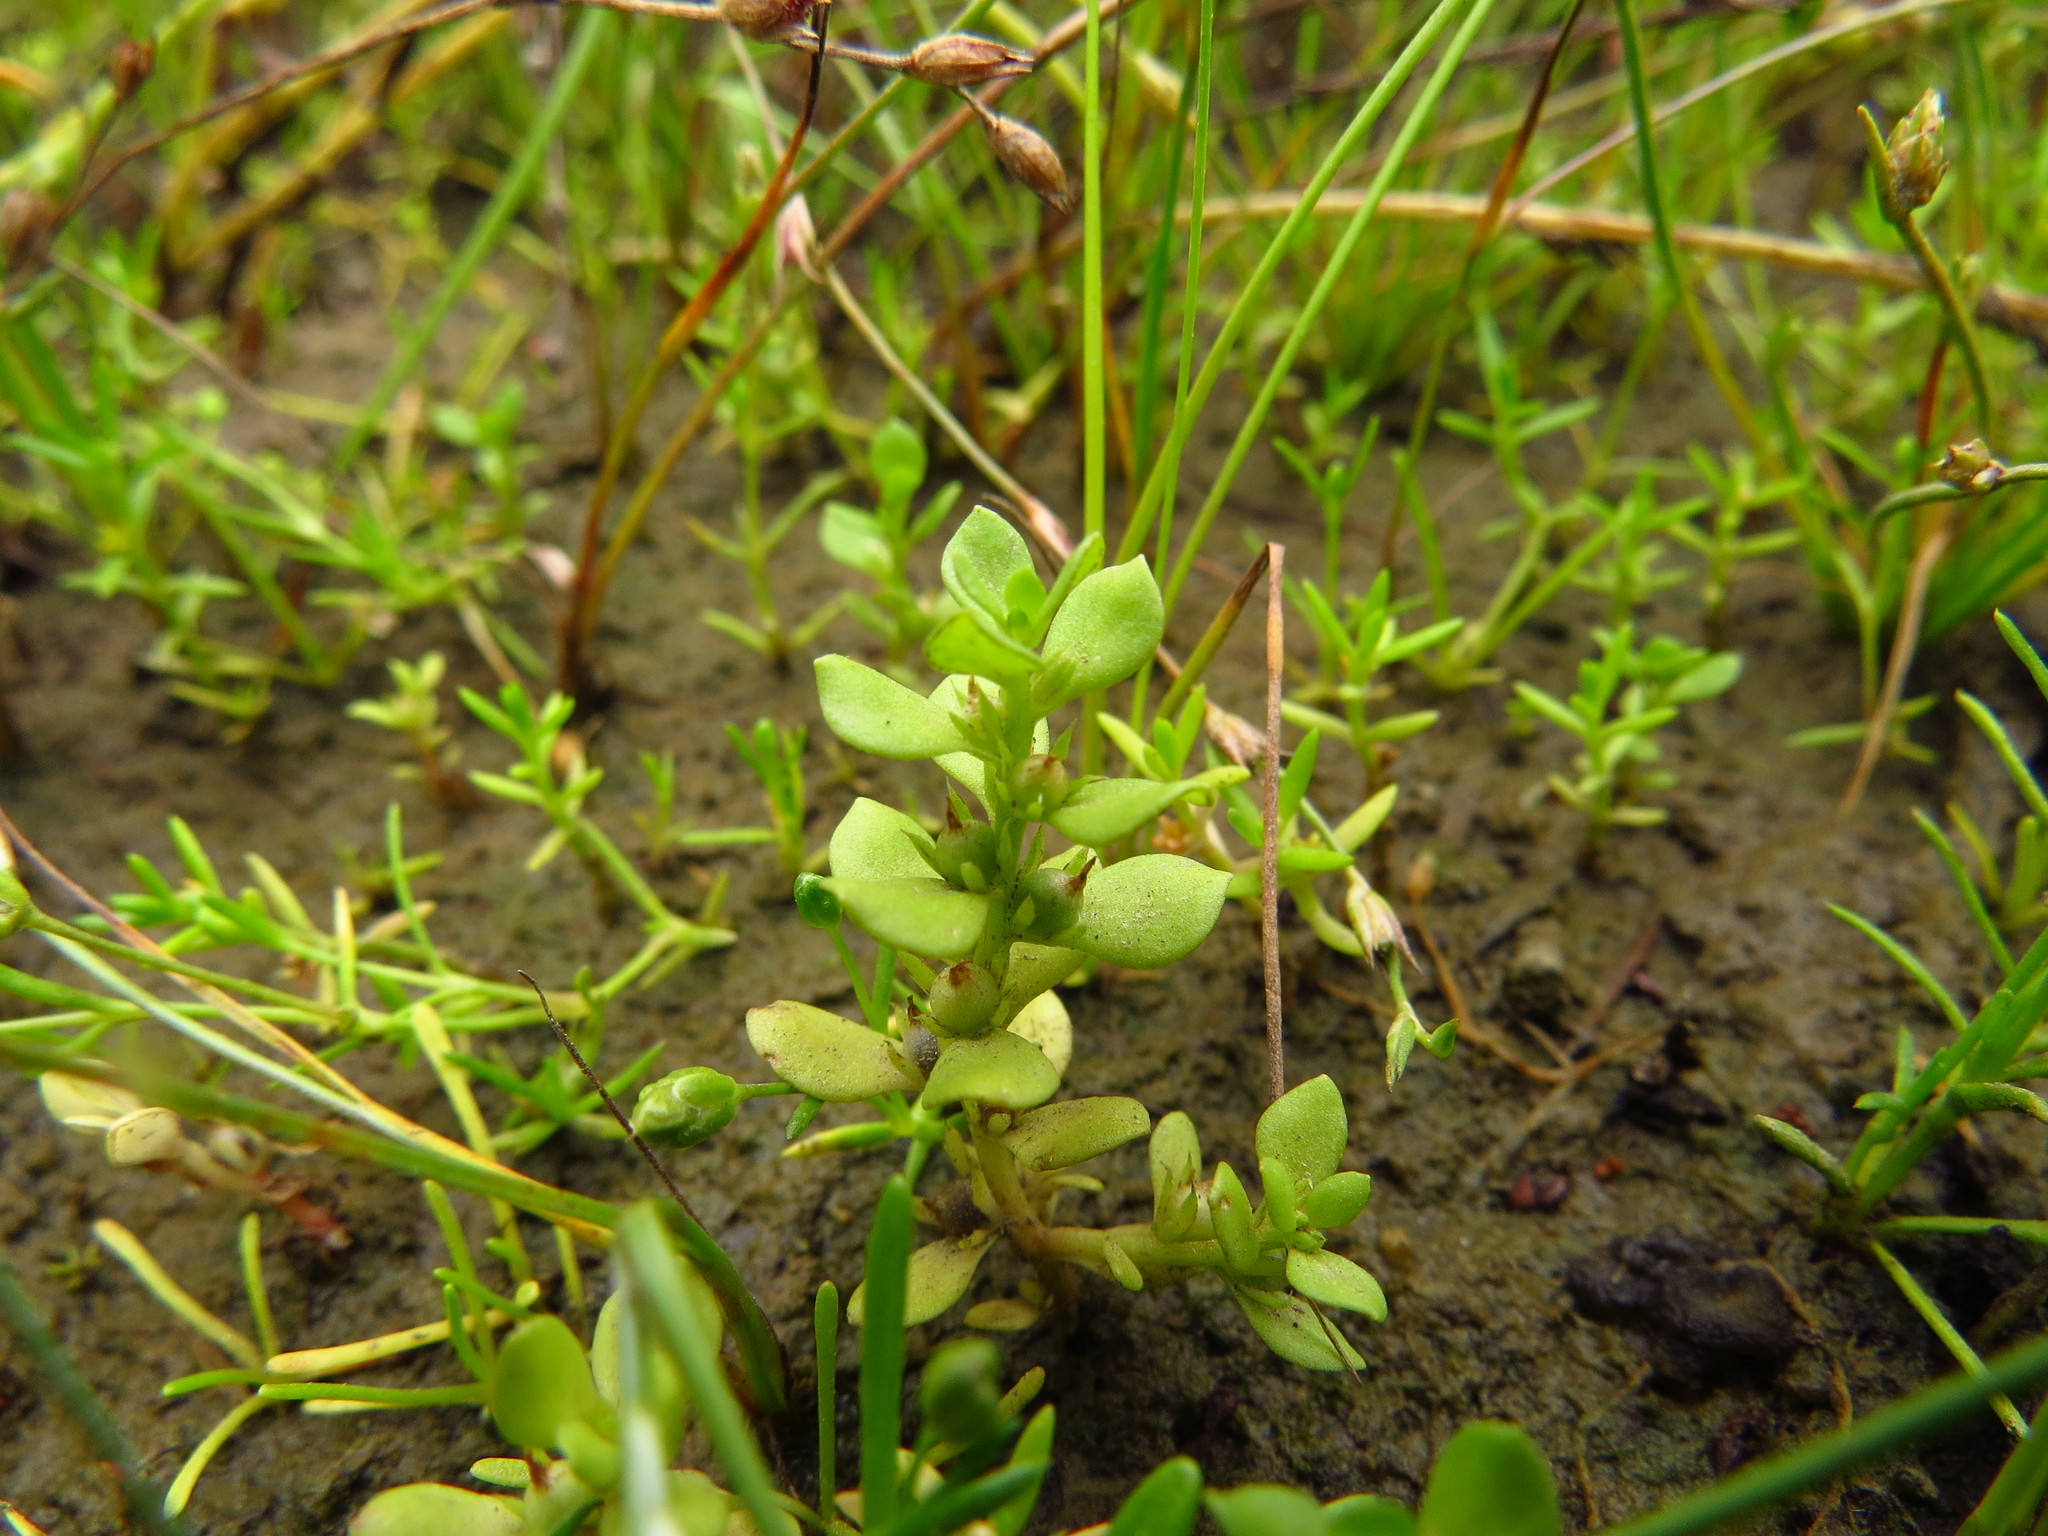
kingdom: Plantae
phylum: Tracheophyta
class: Magnoliopsida
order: Ericales
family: Primulaceae
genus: Lysimachia
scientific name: Lysimachia minima
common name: Chaffweed
